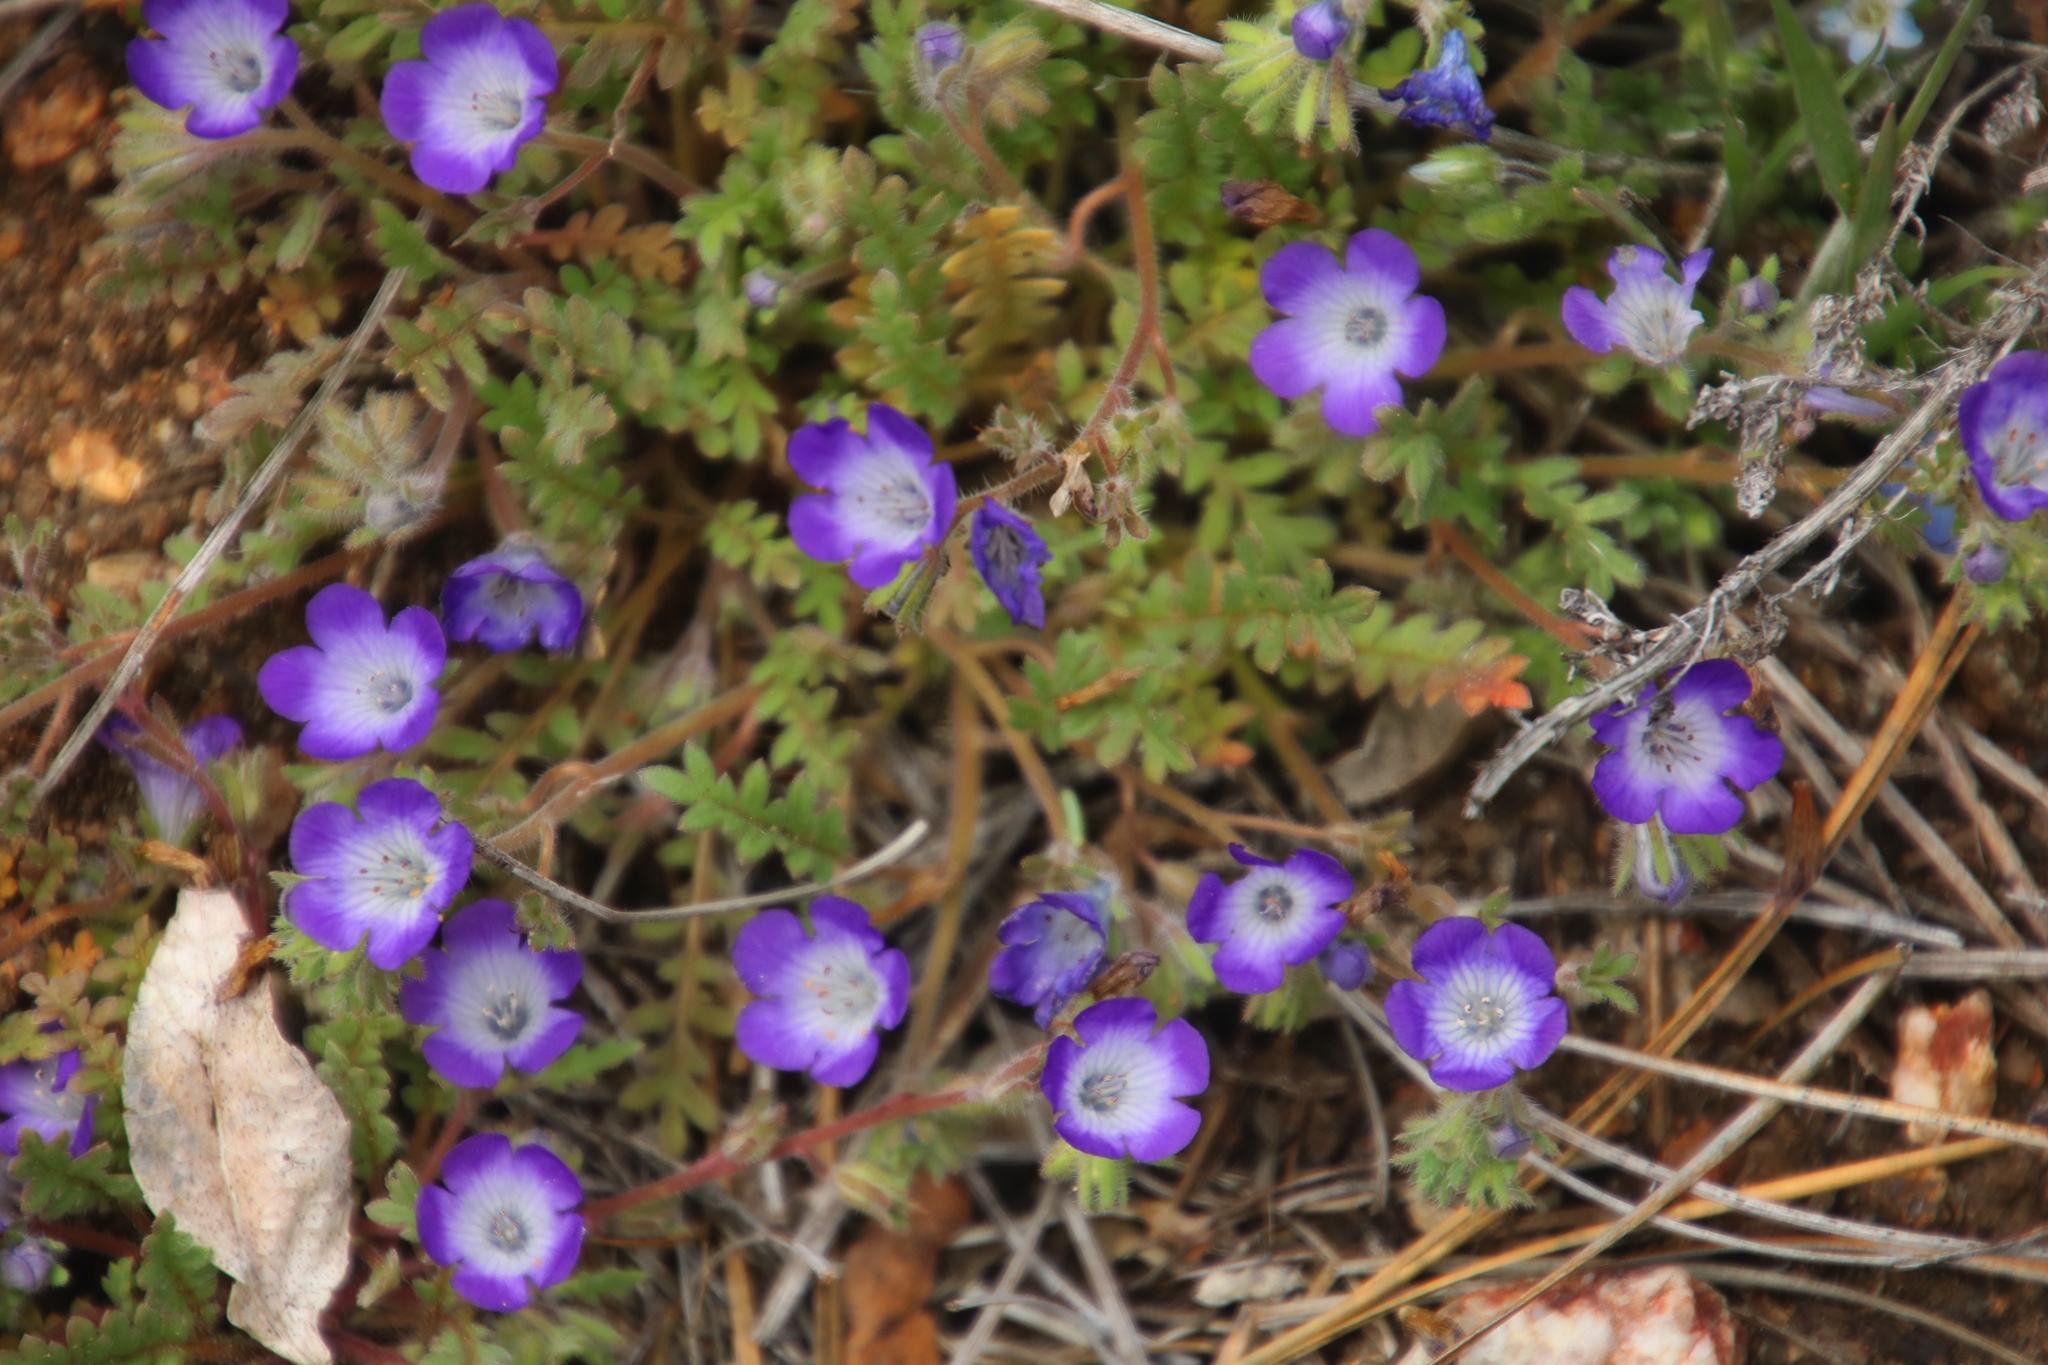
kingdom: Plantae
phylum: Tracheophyta
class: Magnoliopsida
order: Boraginales
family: Hydrophyllaceae
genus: Phacelia
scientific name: Phacelia douglasii
